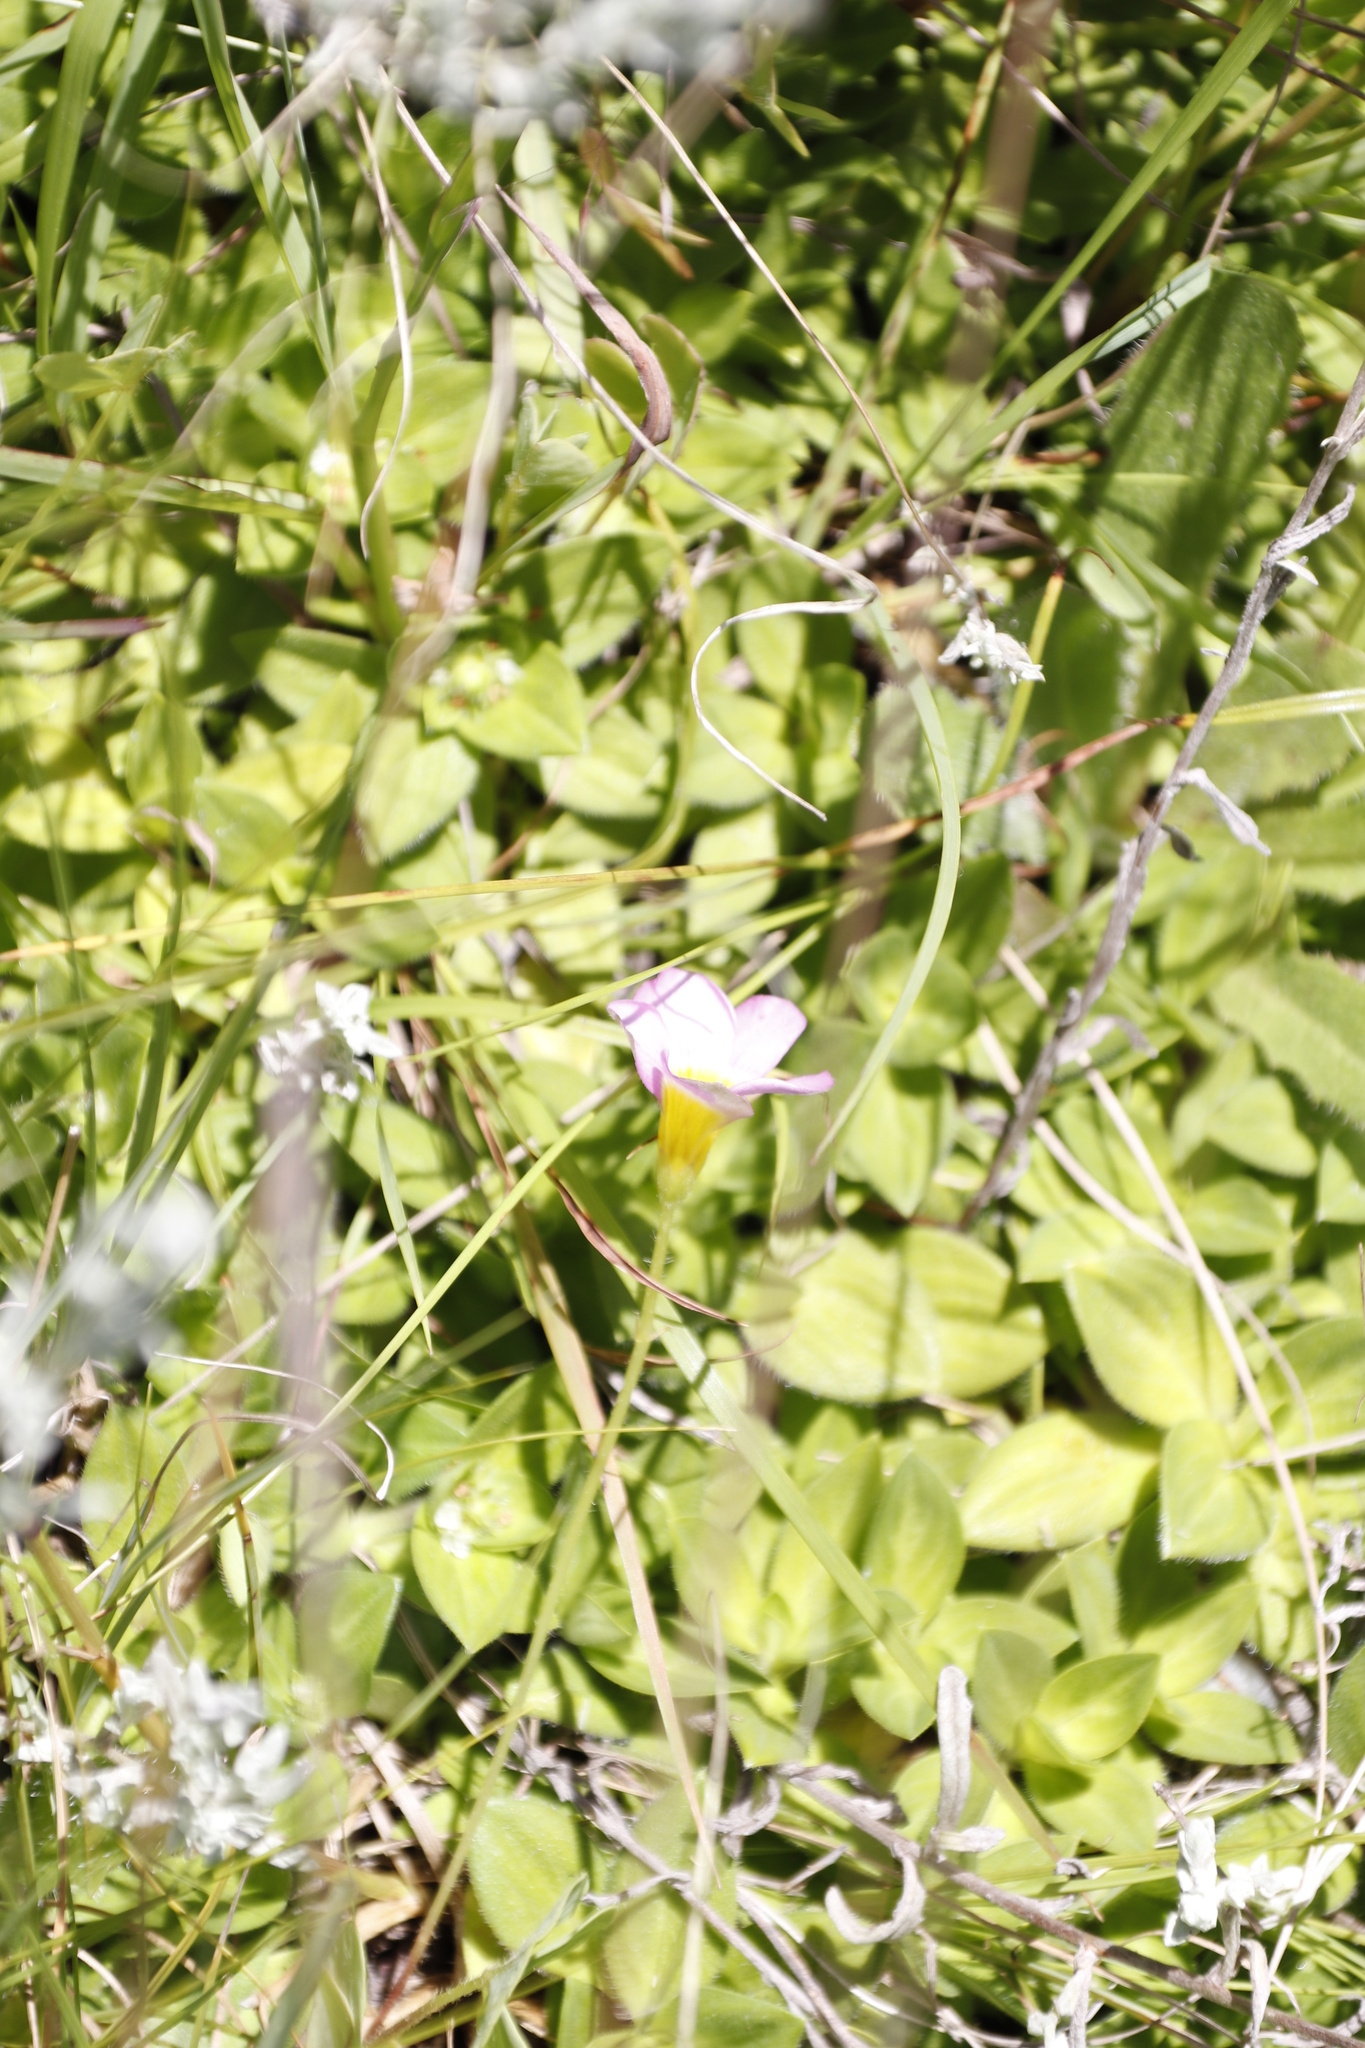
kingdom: Plantae
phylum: Tracheophyta
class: Magnoliopsida
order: Oxalidales
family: Oxalidaceae
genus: Oxalis
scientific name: Oxalis obliquifolia
